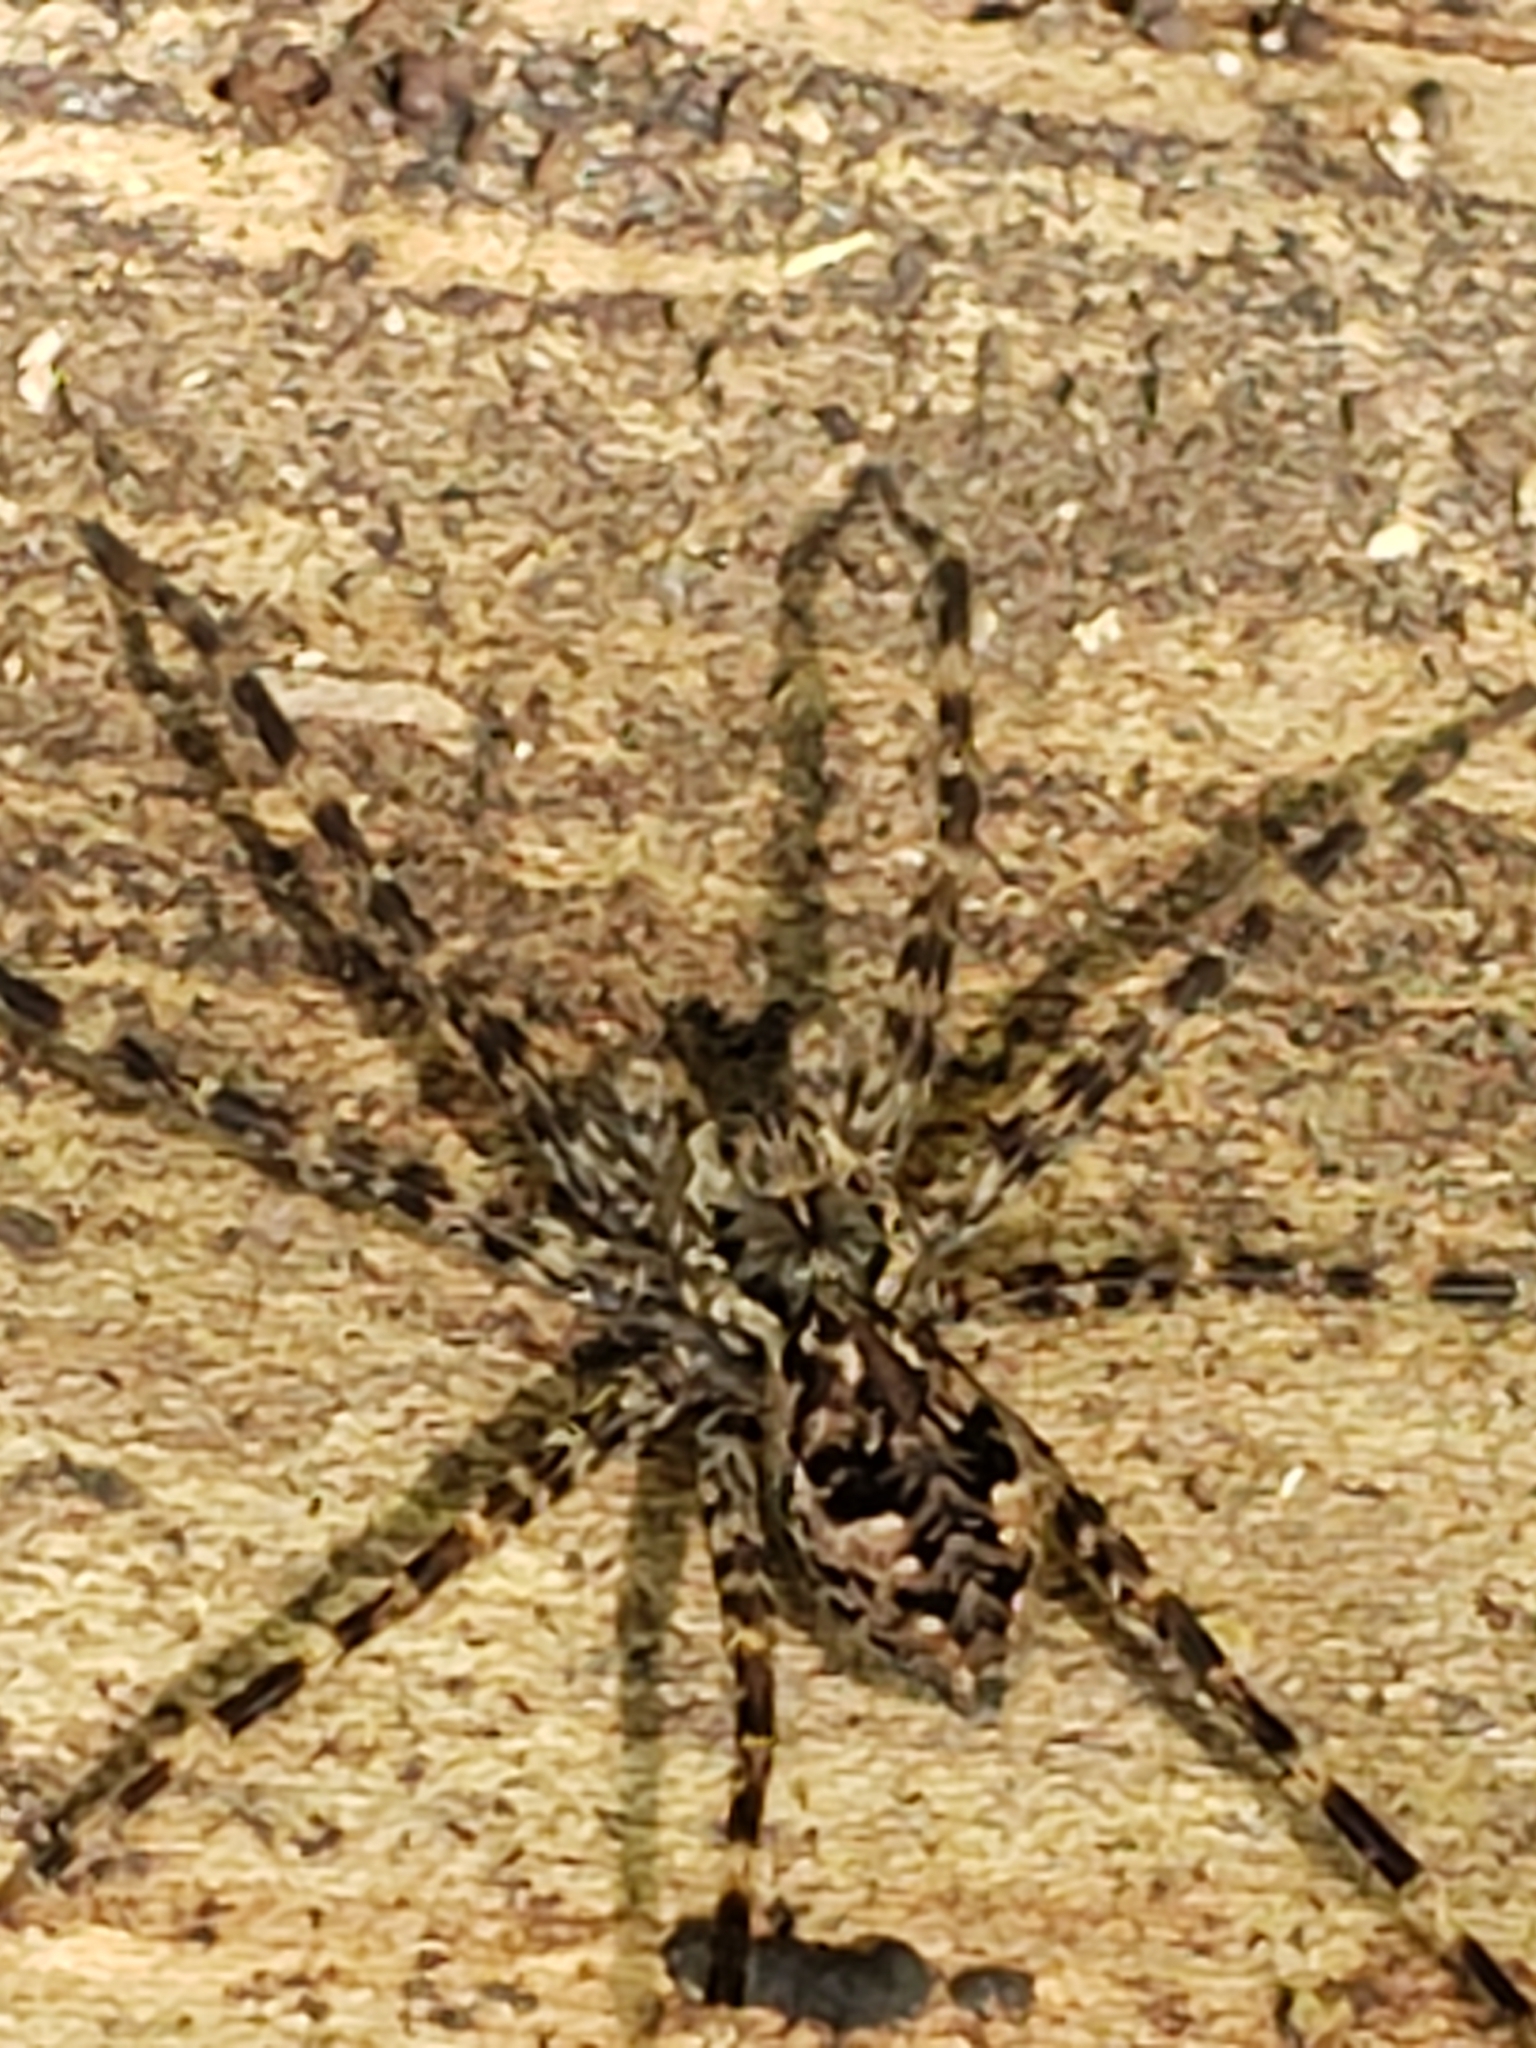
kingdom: Animalia
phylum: Arthropoda
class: Arachnida
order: Araneae
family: Pisauridae
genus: Dolomedes
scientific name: Dolomedes tenebrosus
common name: Dark fishing spider
